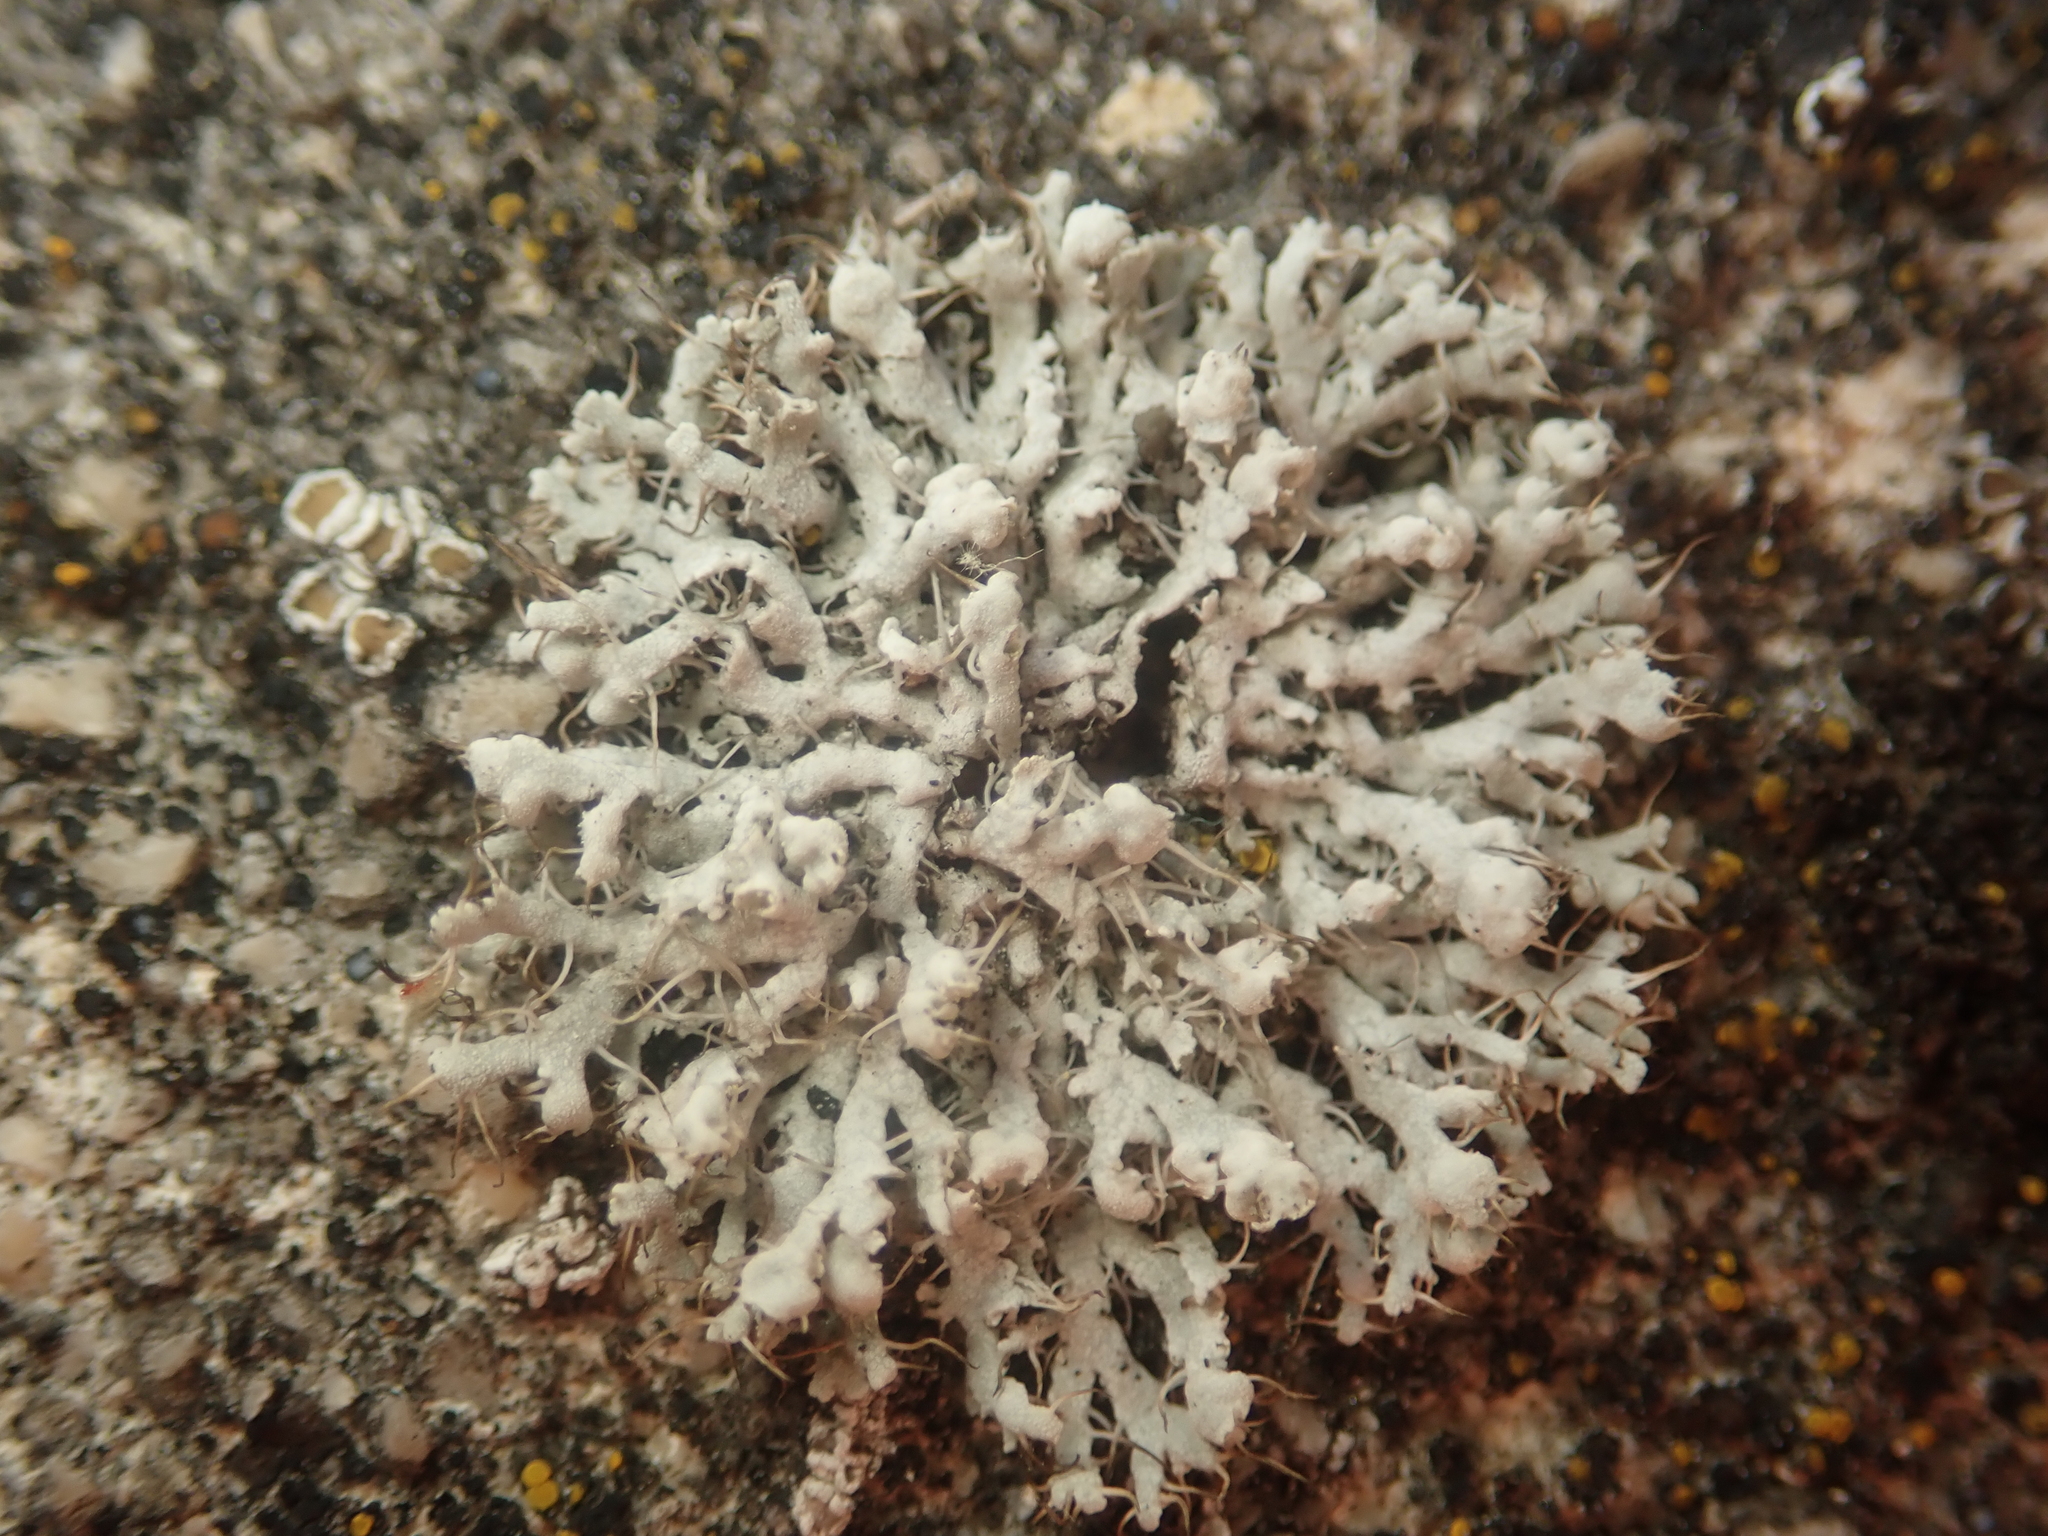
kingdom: Fungi
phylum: Ascomycota
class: Lecanoromycetes
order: Caliciales
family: Physciaceae
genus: Physcia
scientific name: Physcia adscendens
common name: Hooded rosette lichen
